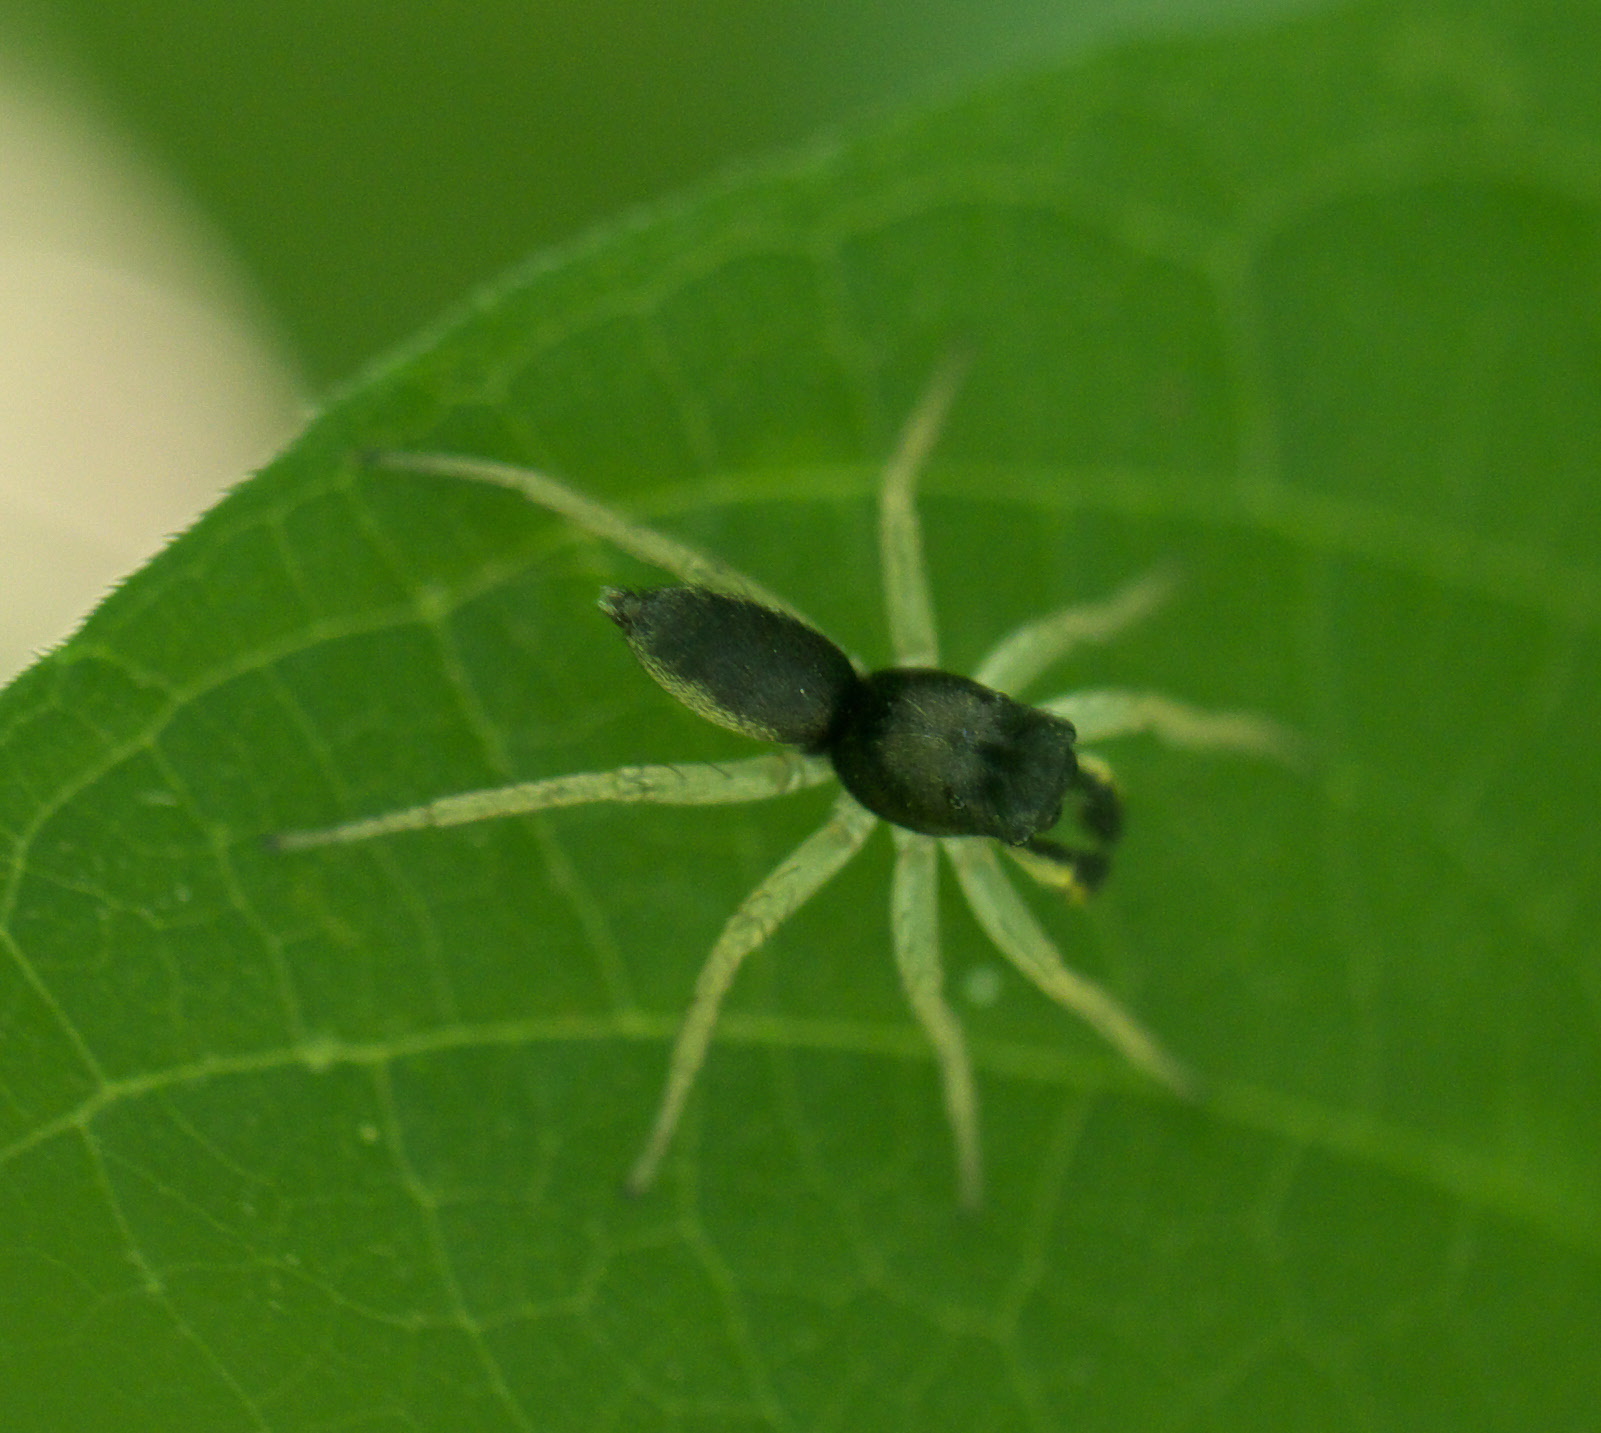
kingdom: Animalia
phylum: Arthropoda
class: Arachnida
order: Araneae
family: Salticidae
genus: Maevia
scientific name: Maevia inclemens
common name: Dimorphic jumper
